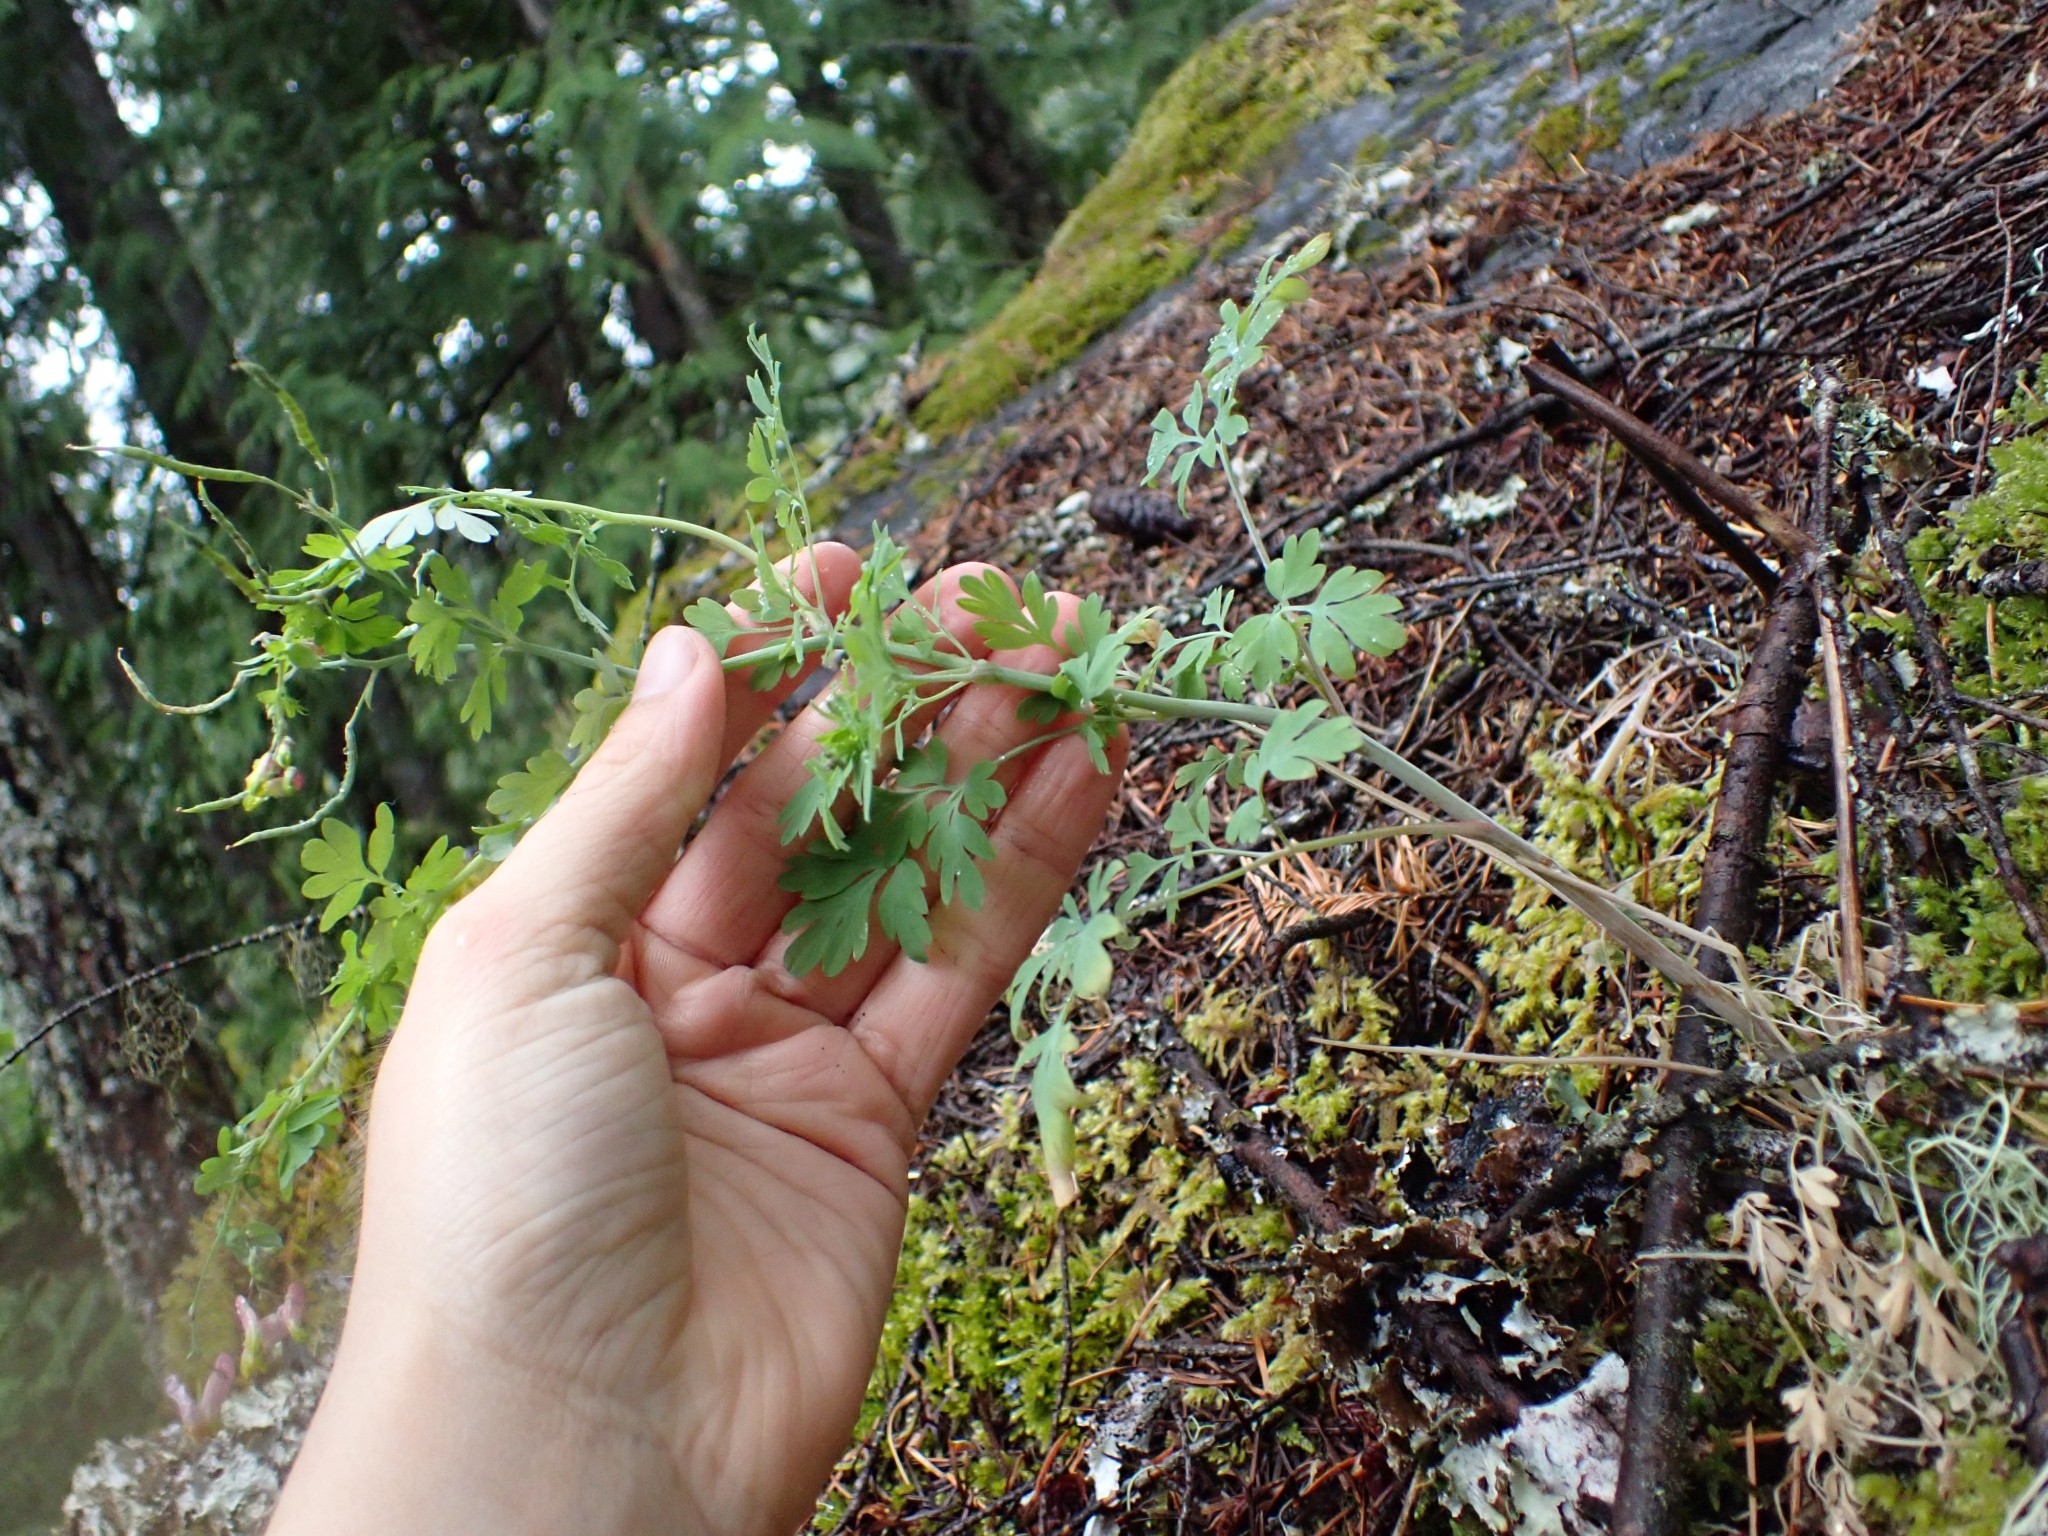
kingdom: Plantae
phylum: Tracheophyta
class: Magnoliopsida
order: Ranunculales
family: Papaveraceae
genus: Capnoides
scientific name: Capnoides sempervirens
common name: Rock harlequin
